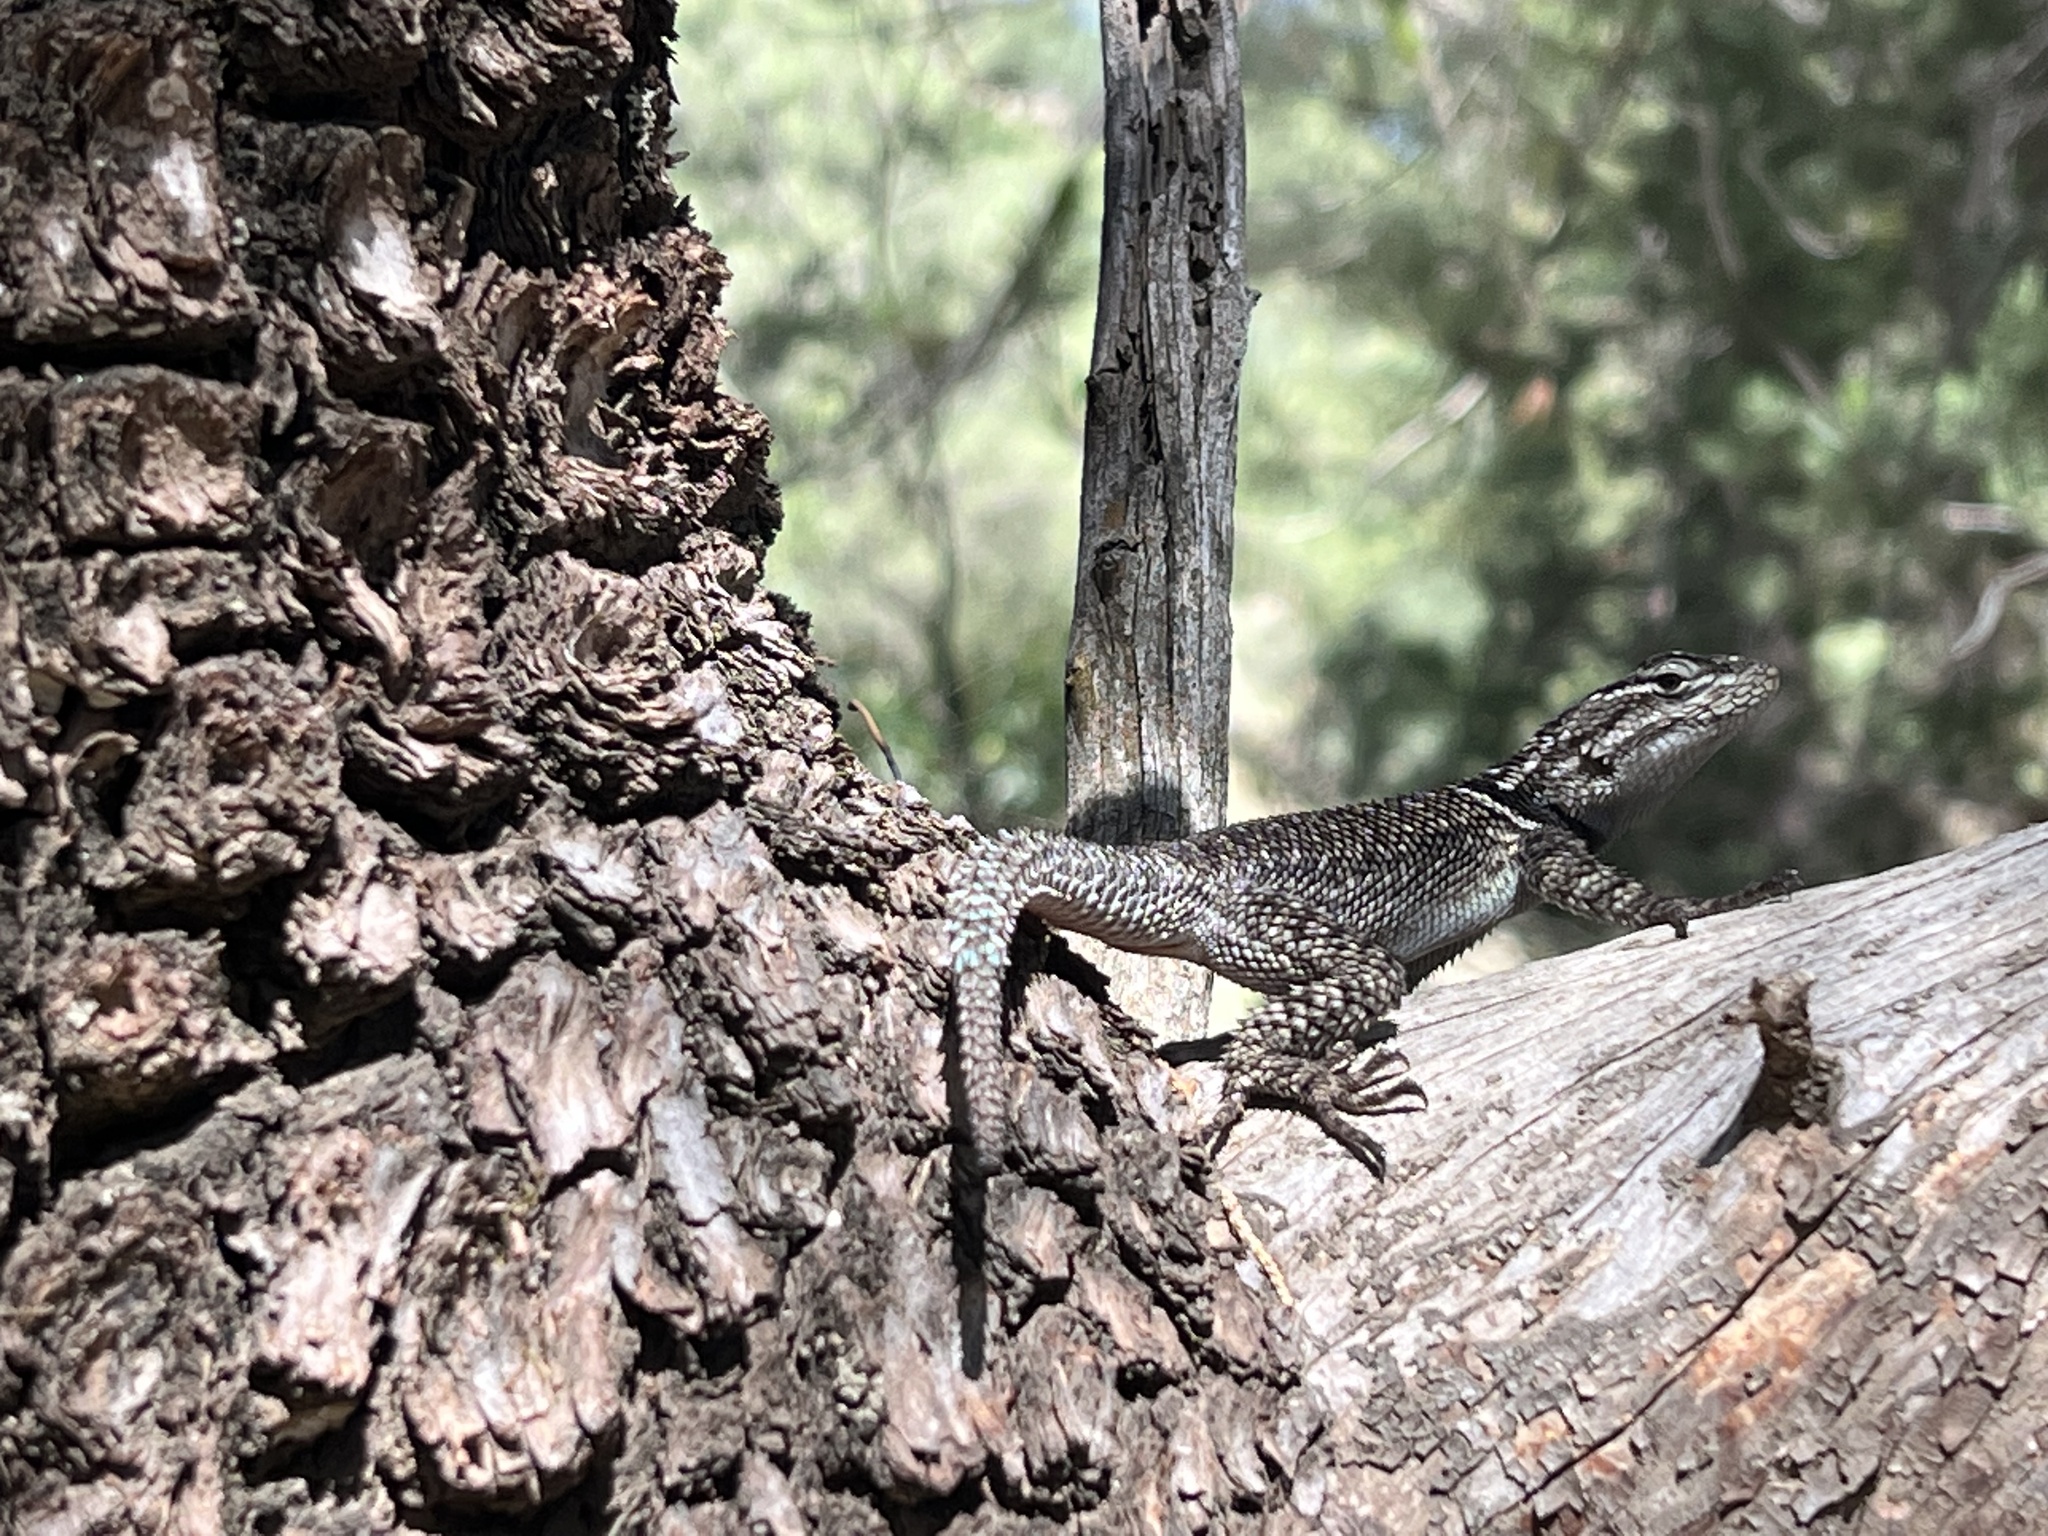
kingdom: Animalia
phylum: Chordata
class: Squamata
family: Phrynosomatidae
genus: Sceloporus
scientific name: Sceloporus jarrovii
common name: Yarrow's spiny lizard
